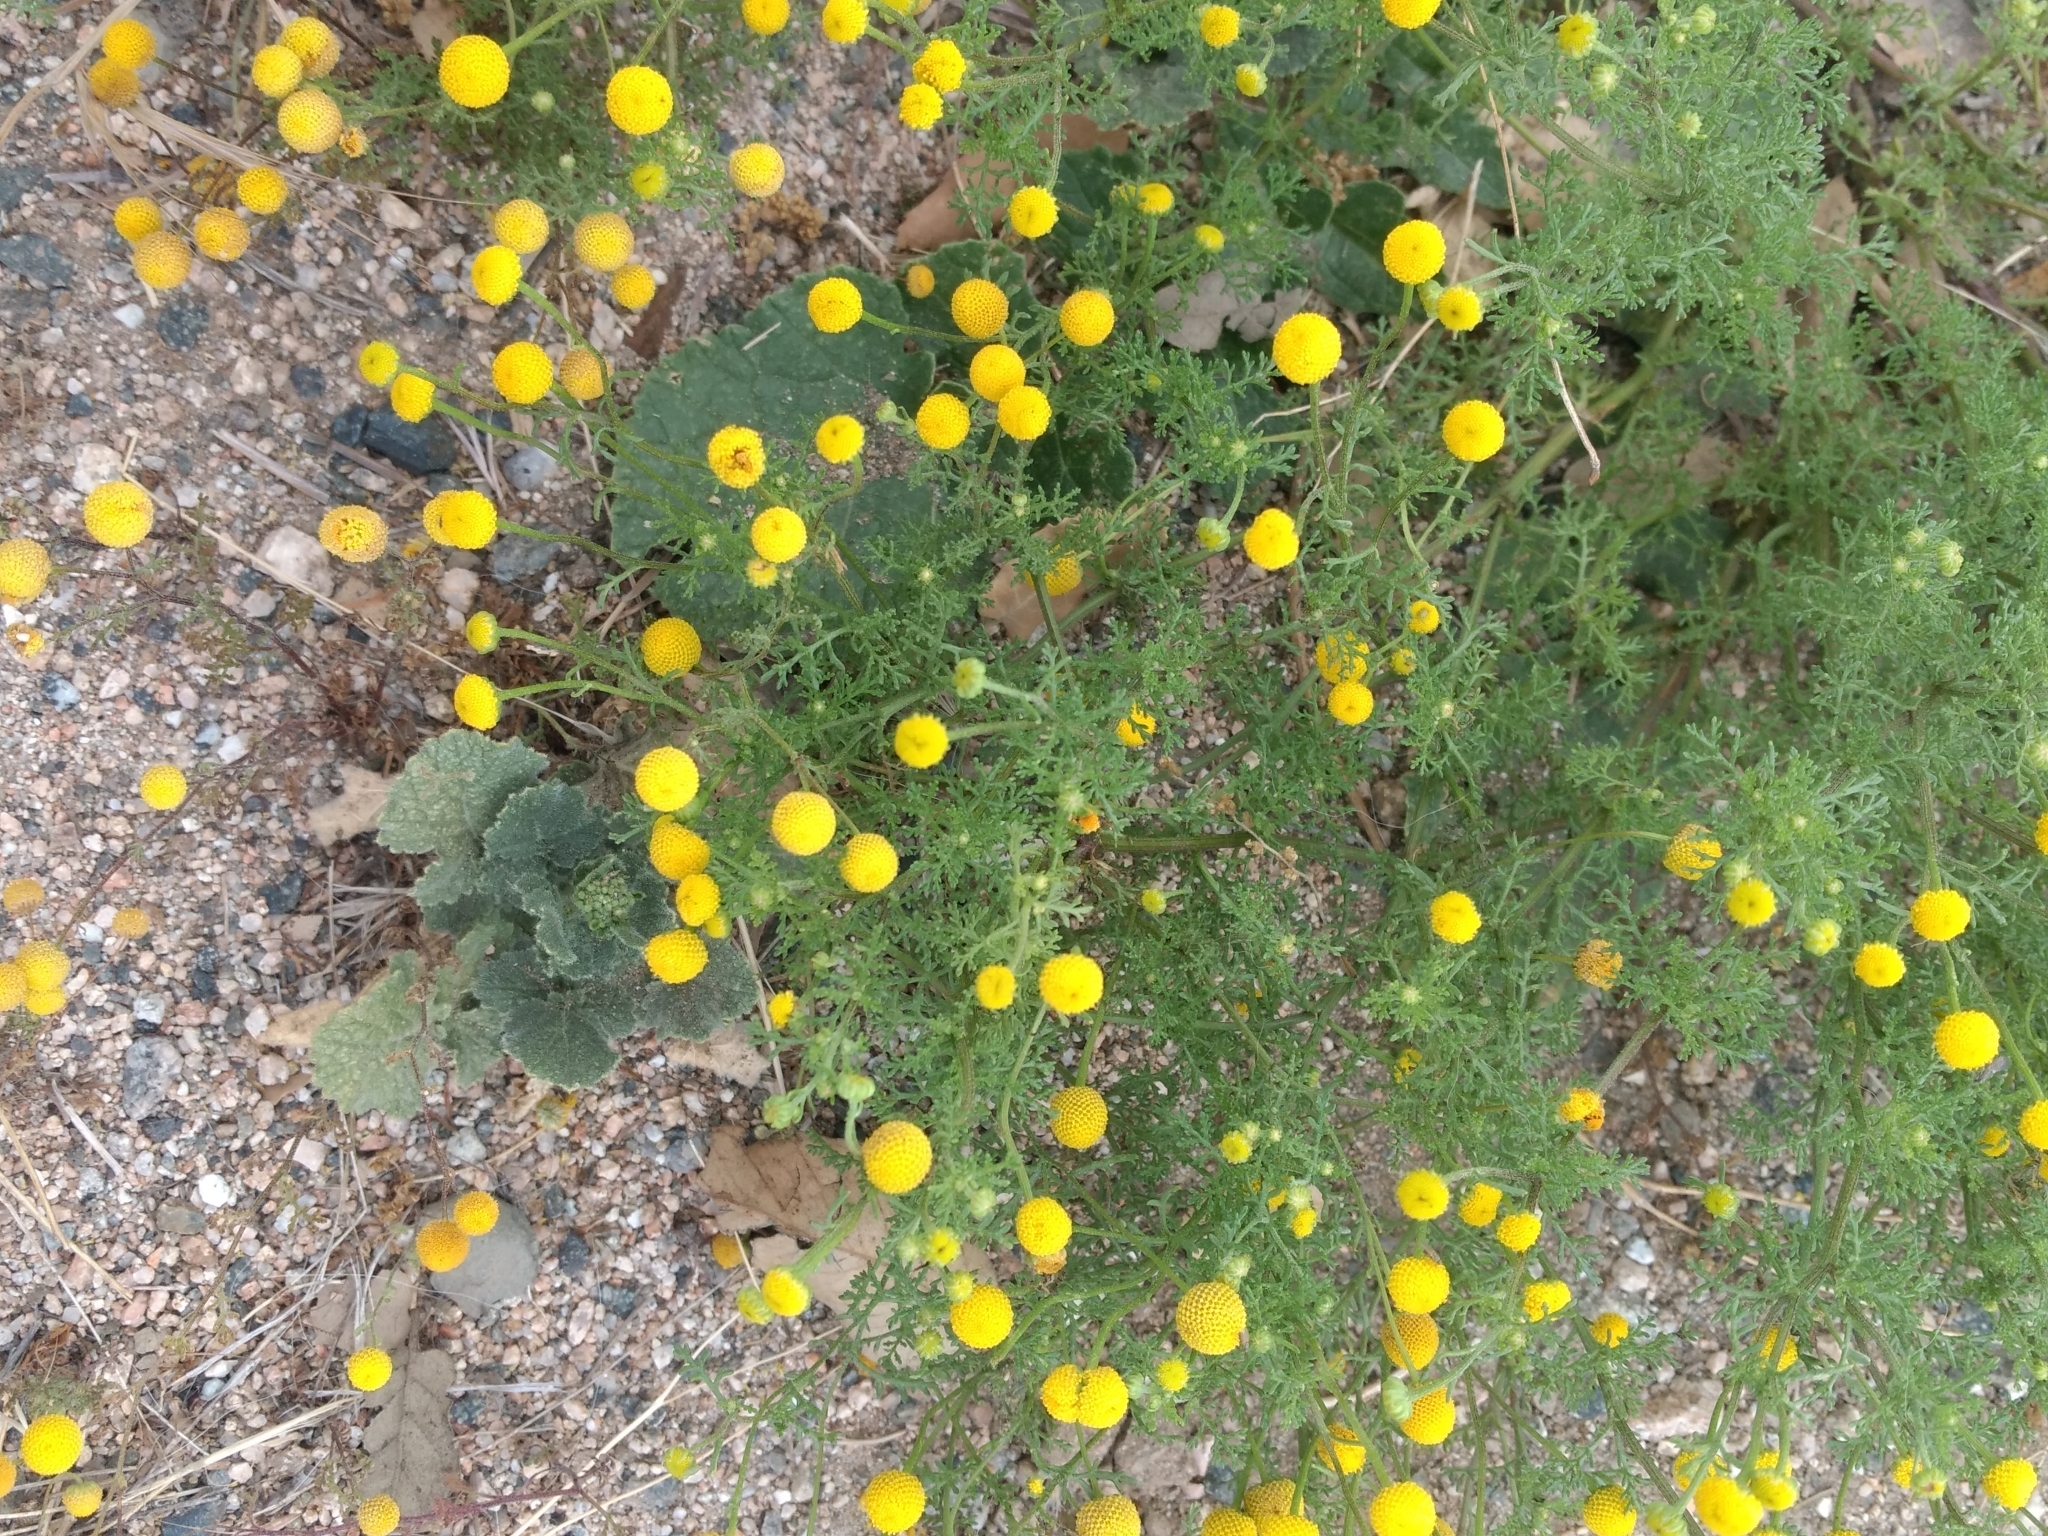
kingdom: Plantae
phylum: Tracheophyta
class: Magnoliopsida
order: Asterales
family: Asteraceae
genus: Oncosiphon
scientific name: Oncosiphon pilulifer
